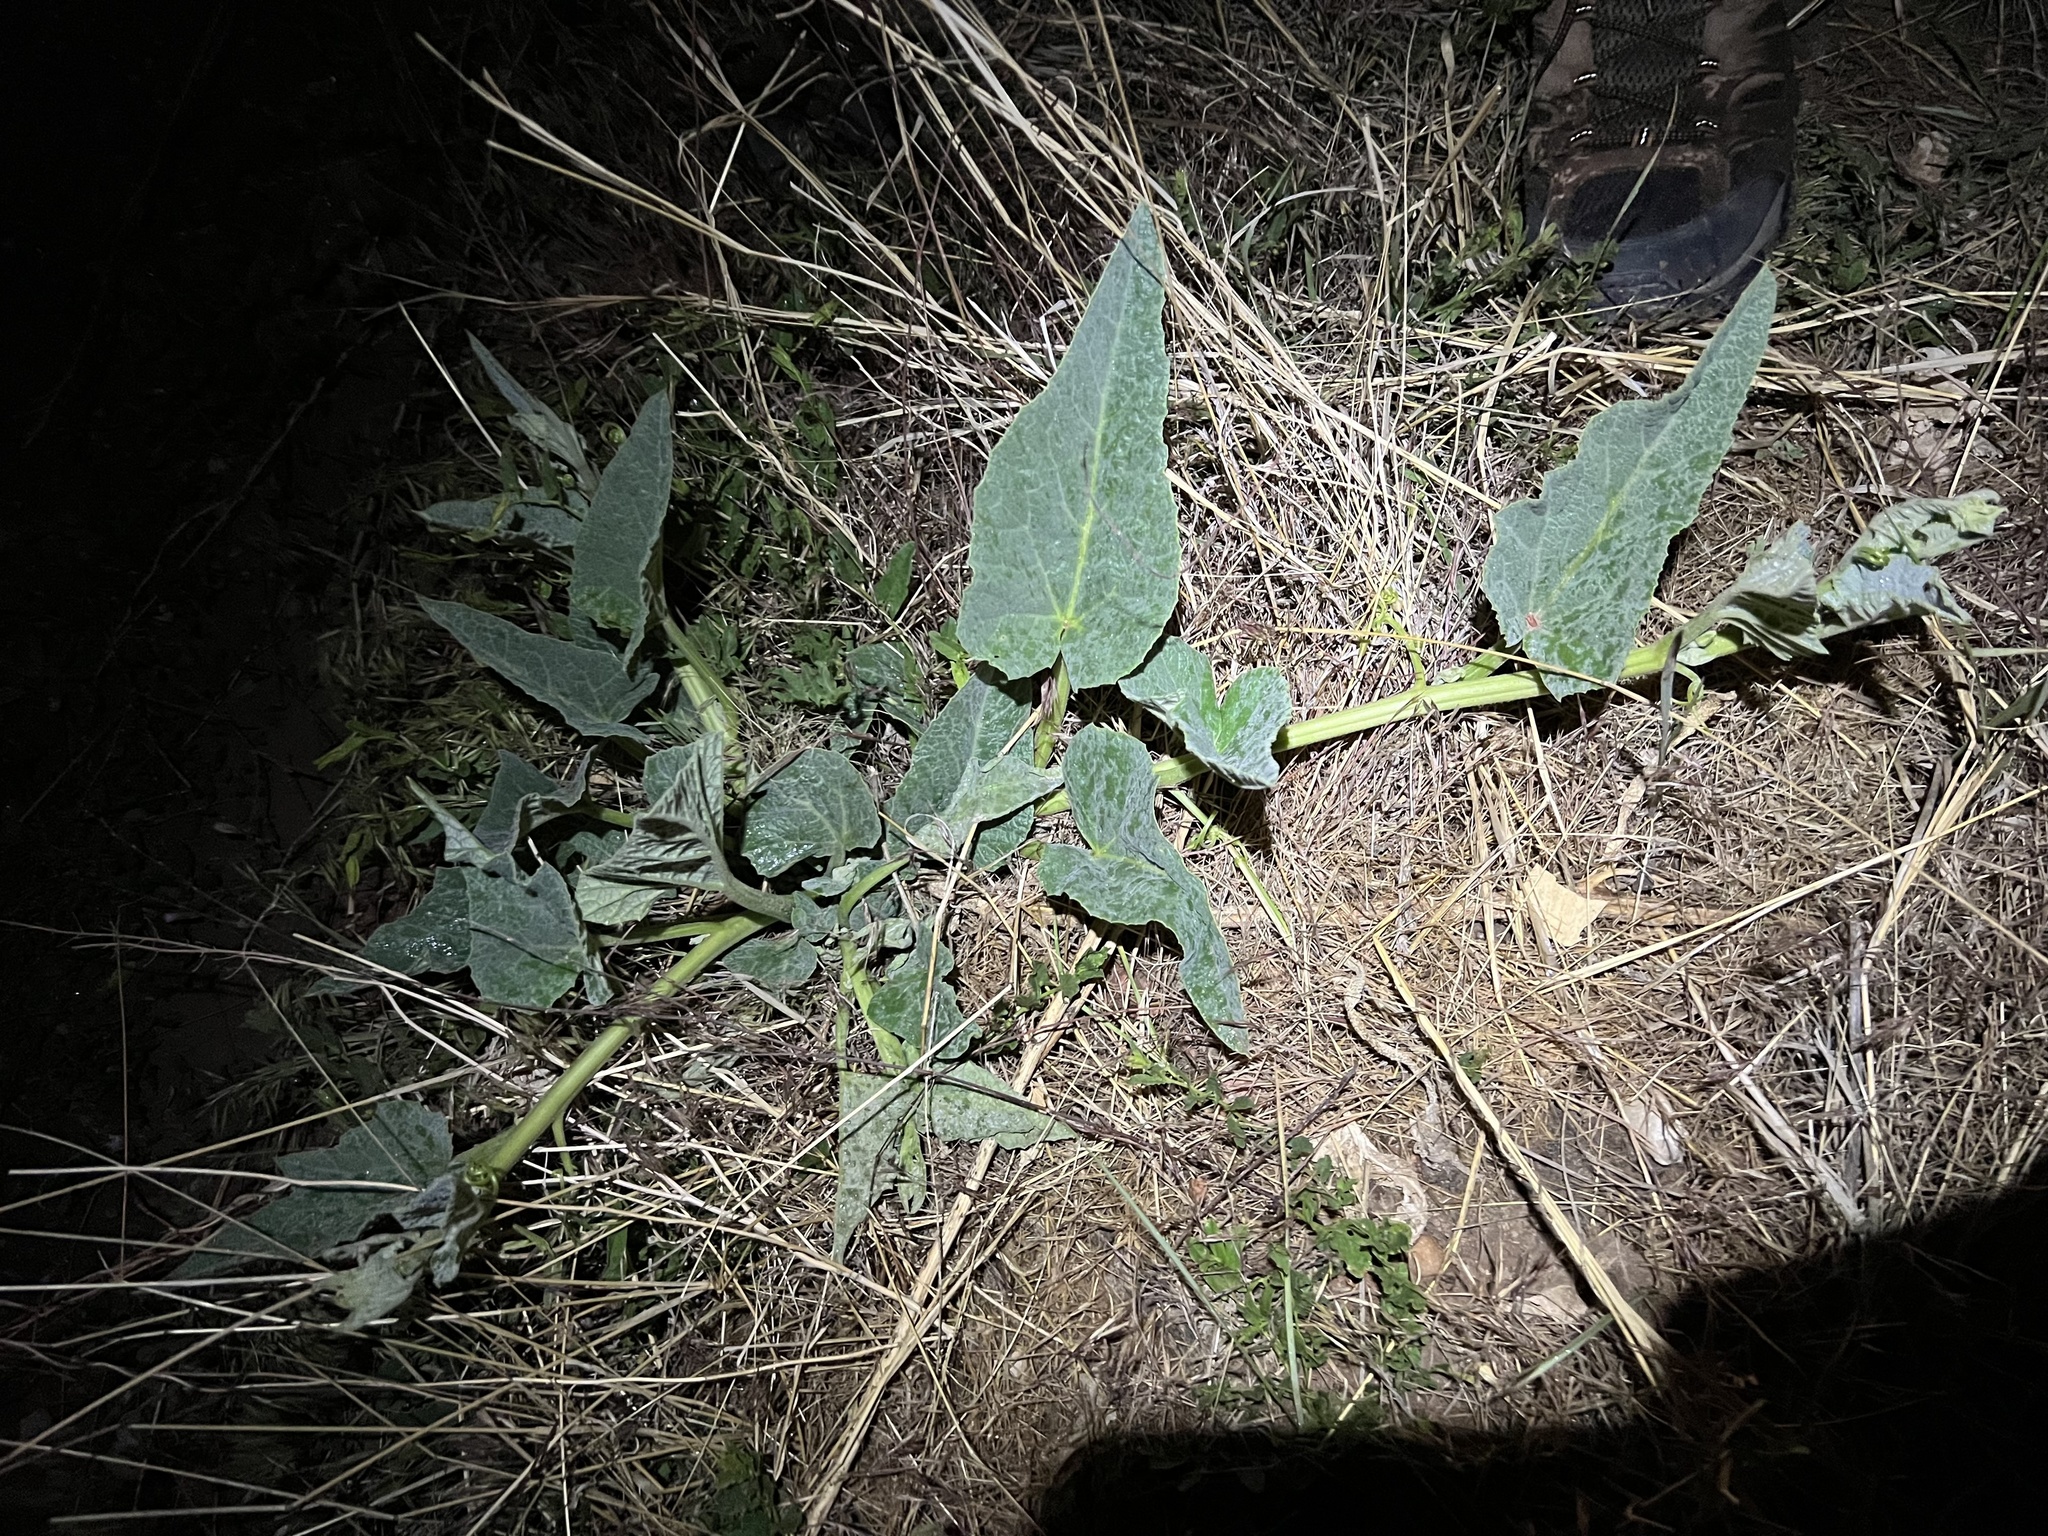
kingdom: Plantae
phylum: Tracheophyta
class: Magnoliopsida
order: Cucurbitales
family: Cucurbitaceae
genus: Cucurbita
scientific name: Cucurbita foetidissima
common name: Buffalo gourd
